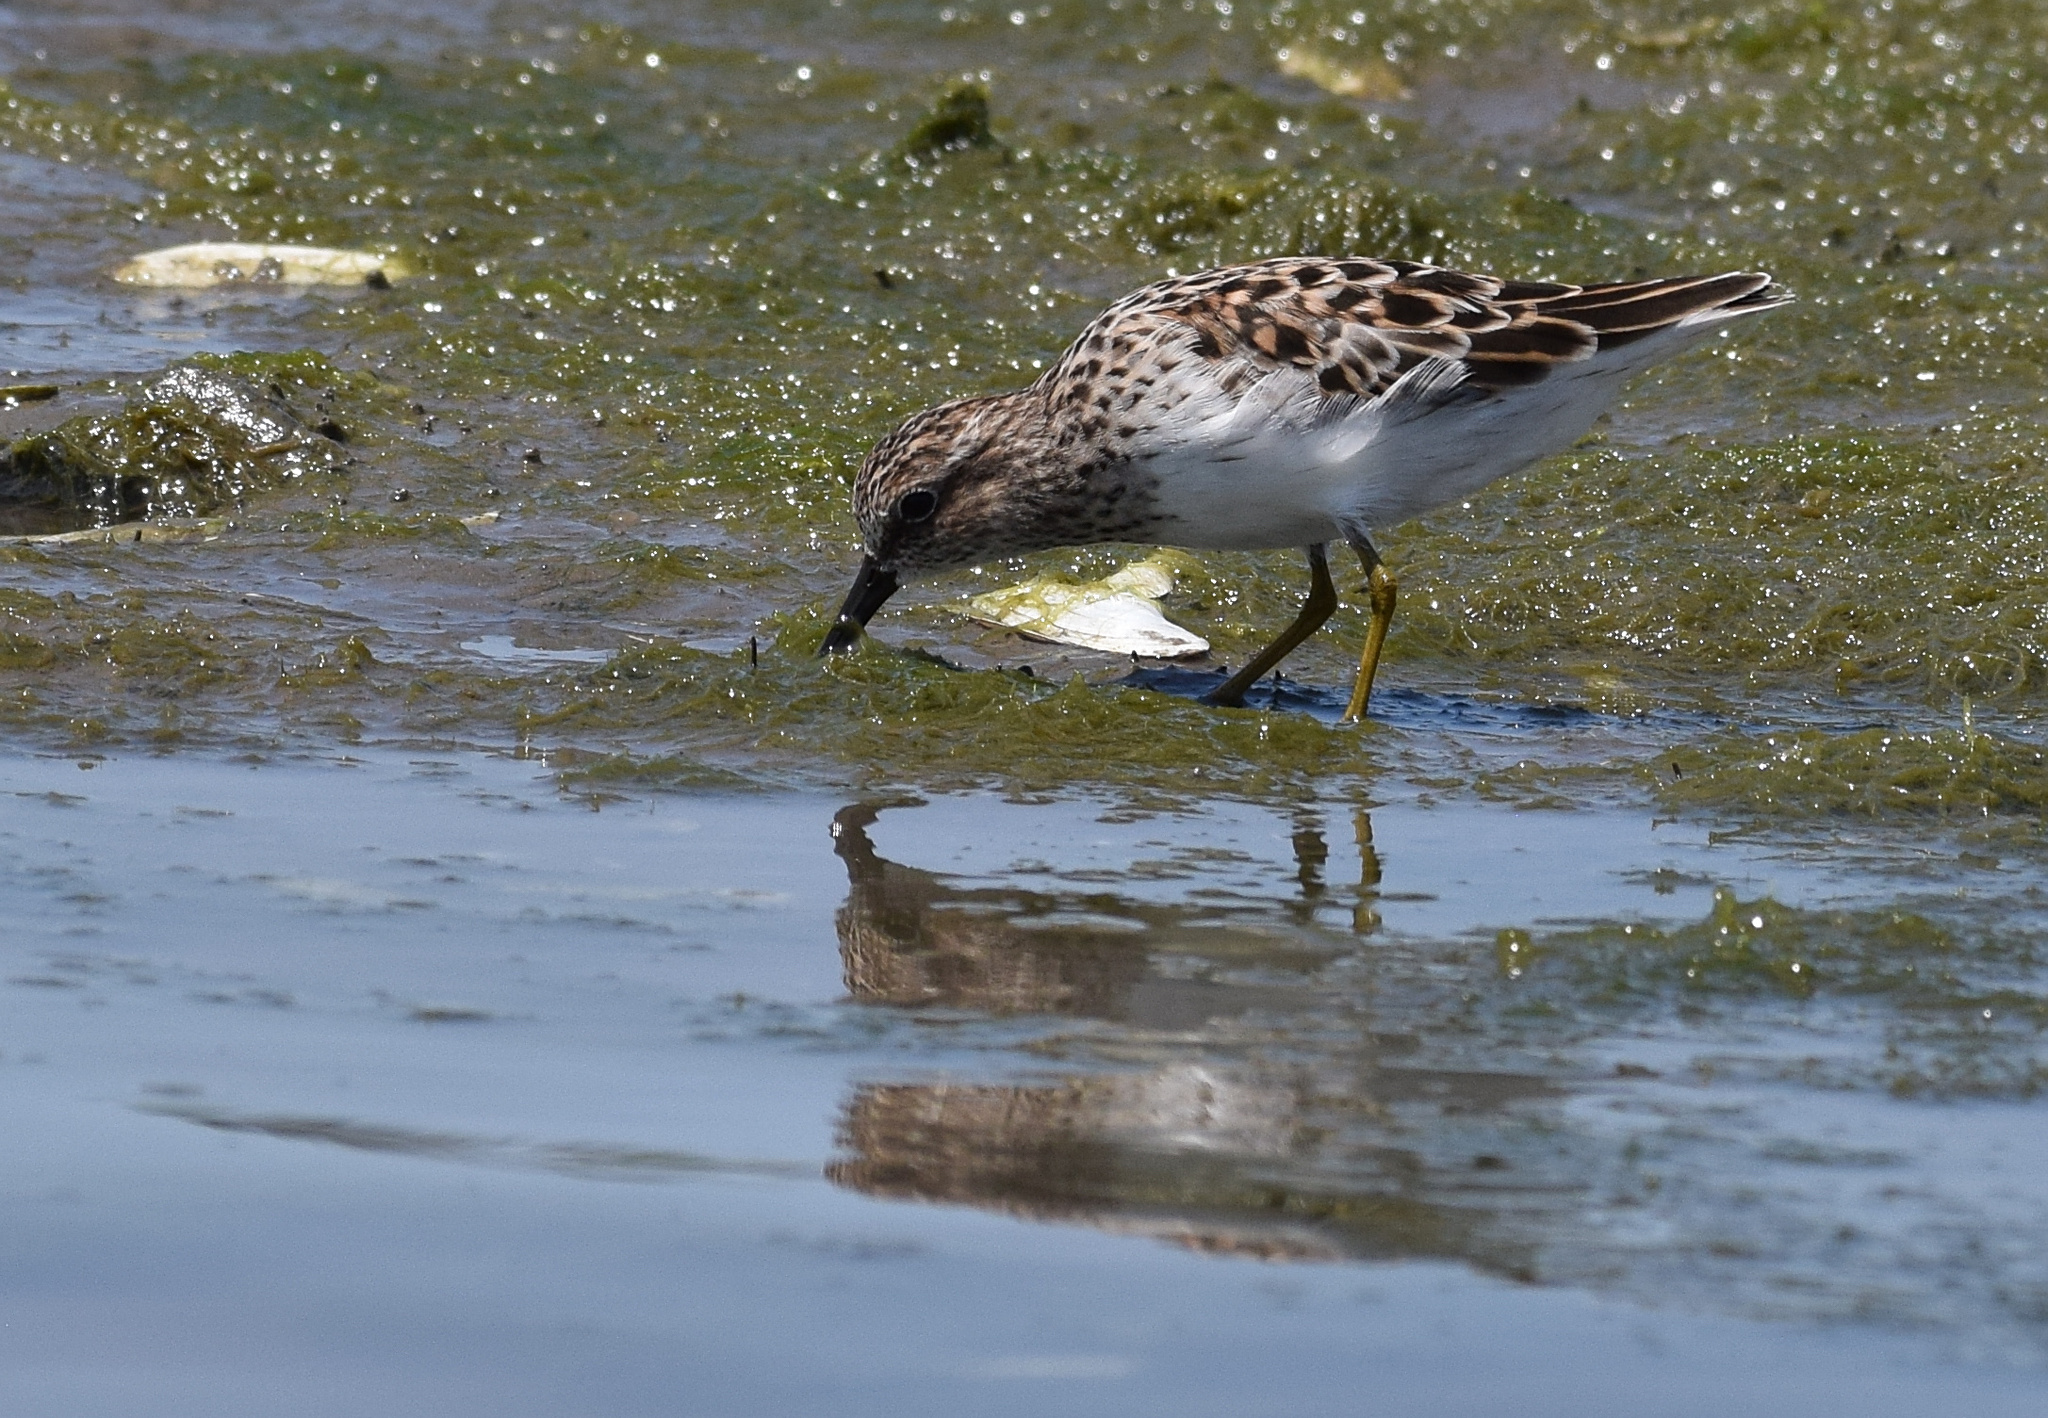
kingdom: Animalia
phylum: Chordata
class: Aves
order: Charadriiformes
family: Scolopacidae
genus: Calidris
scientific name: Calidris minutilla
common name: Least sandpiper
